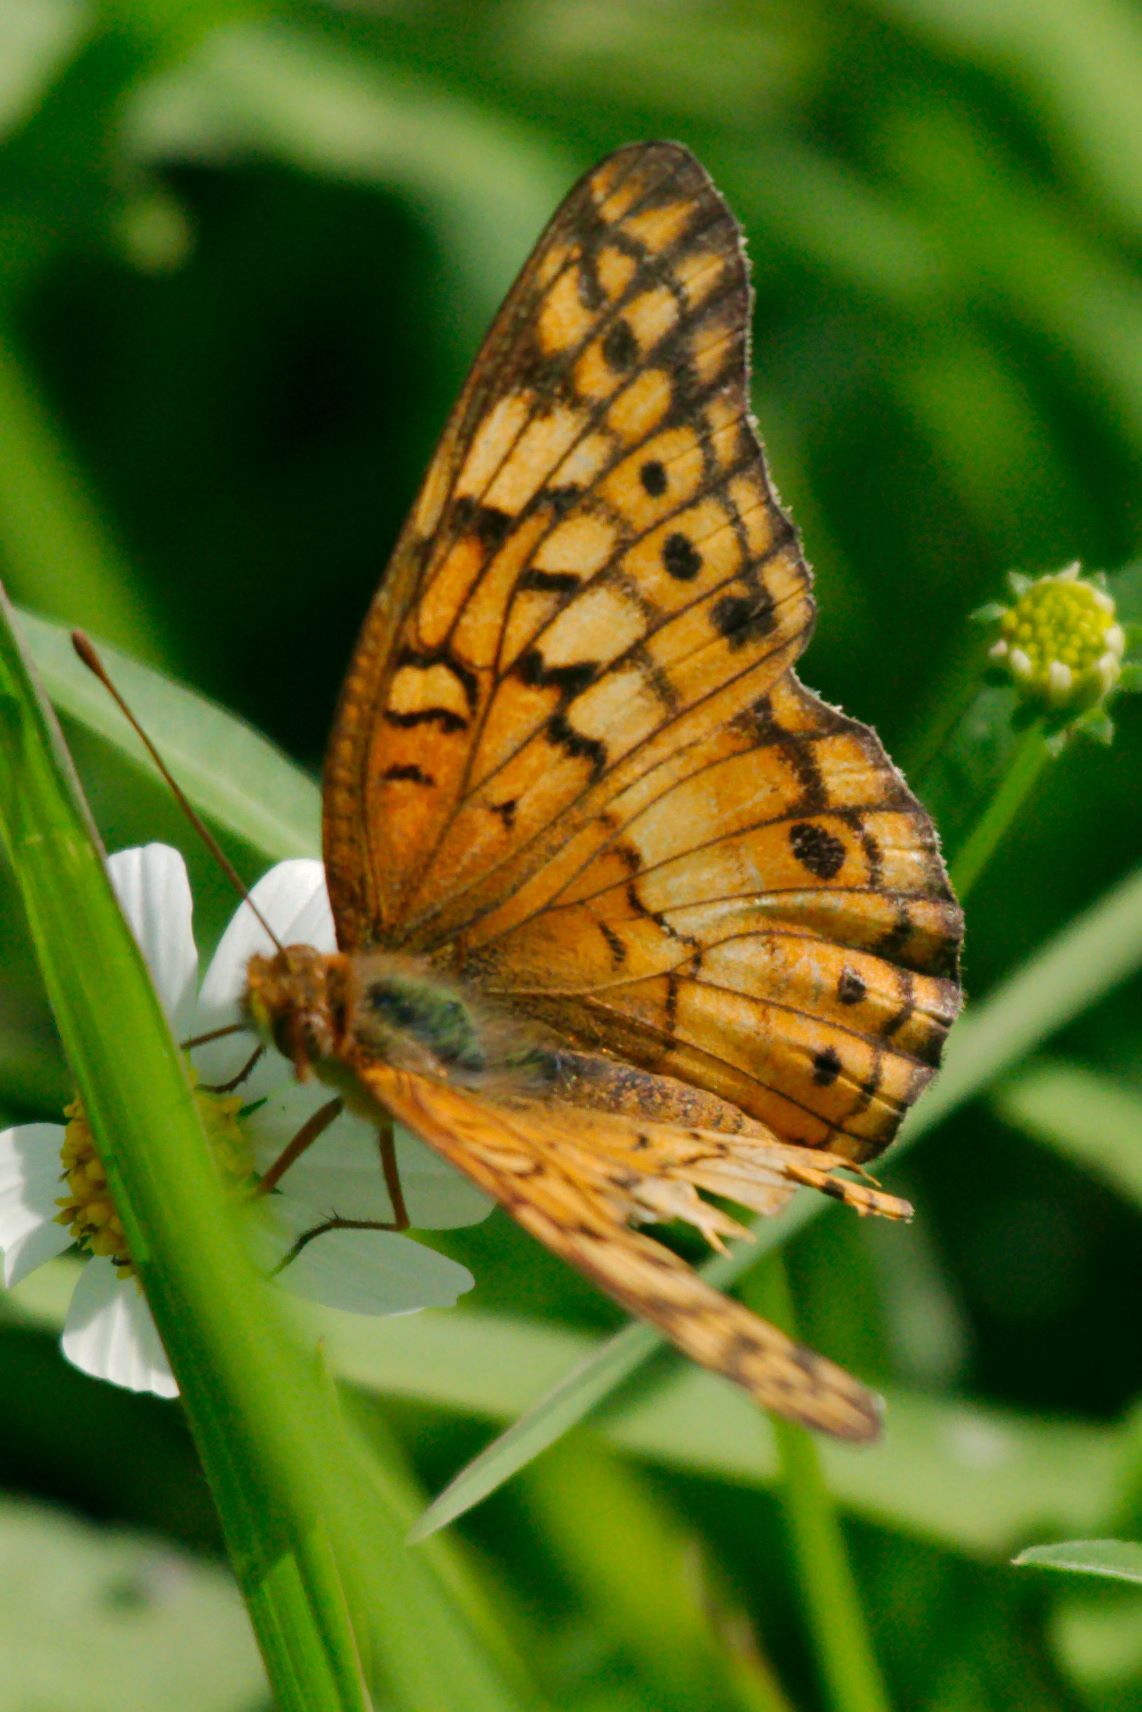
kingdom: Animalia
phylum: Arthropoda
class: Insecta
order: Lepidoptera
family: Nymphalidae
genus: Euptoieta
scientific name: Euptoieta claudia
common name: Variegated fritillary
